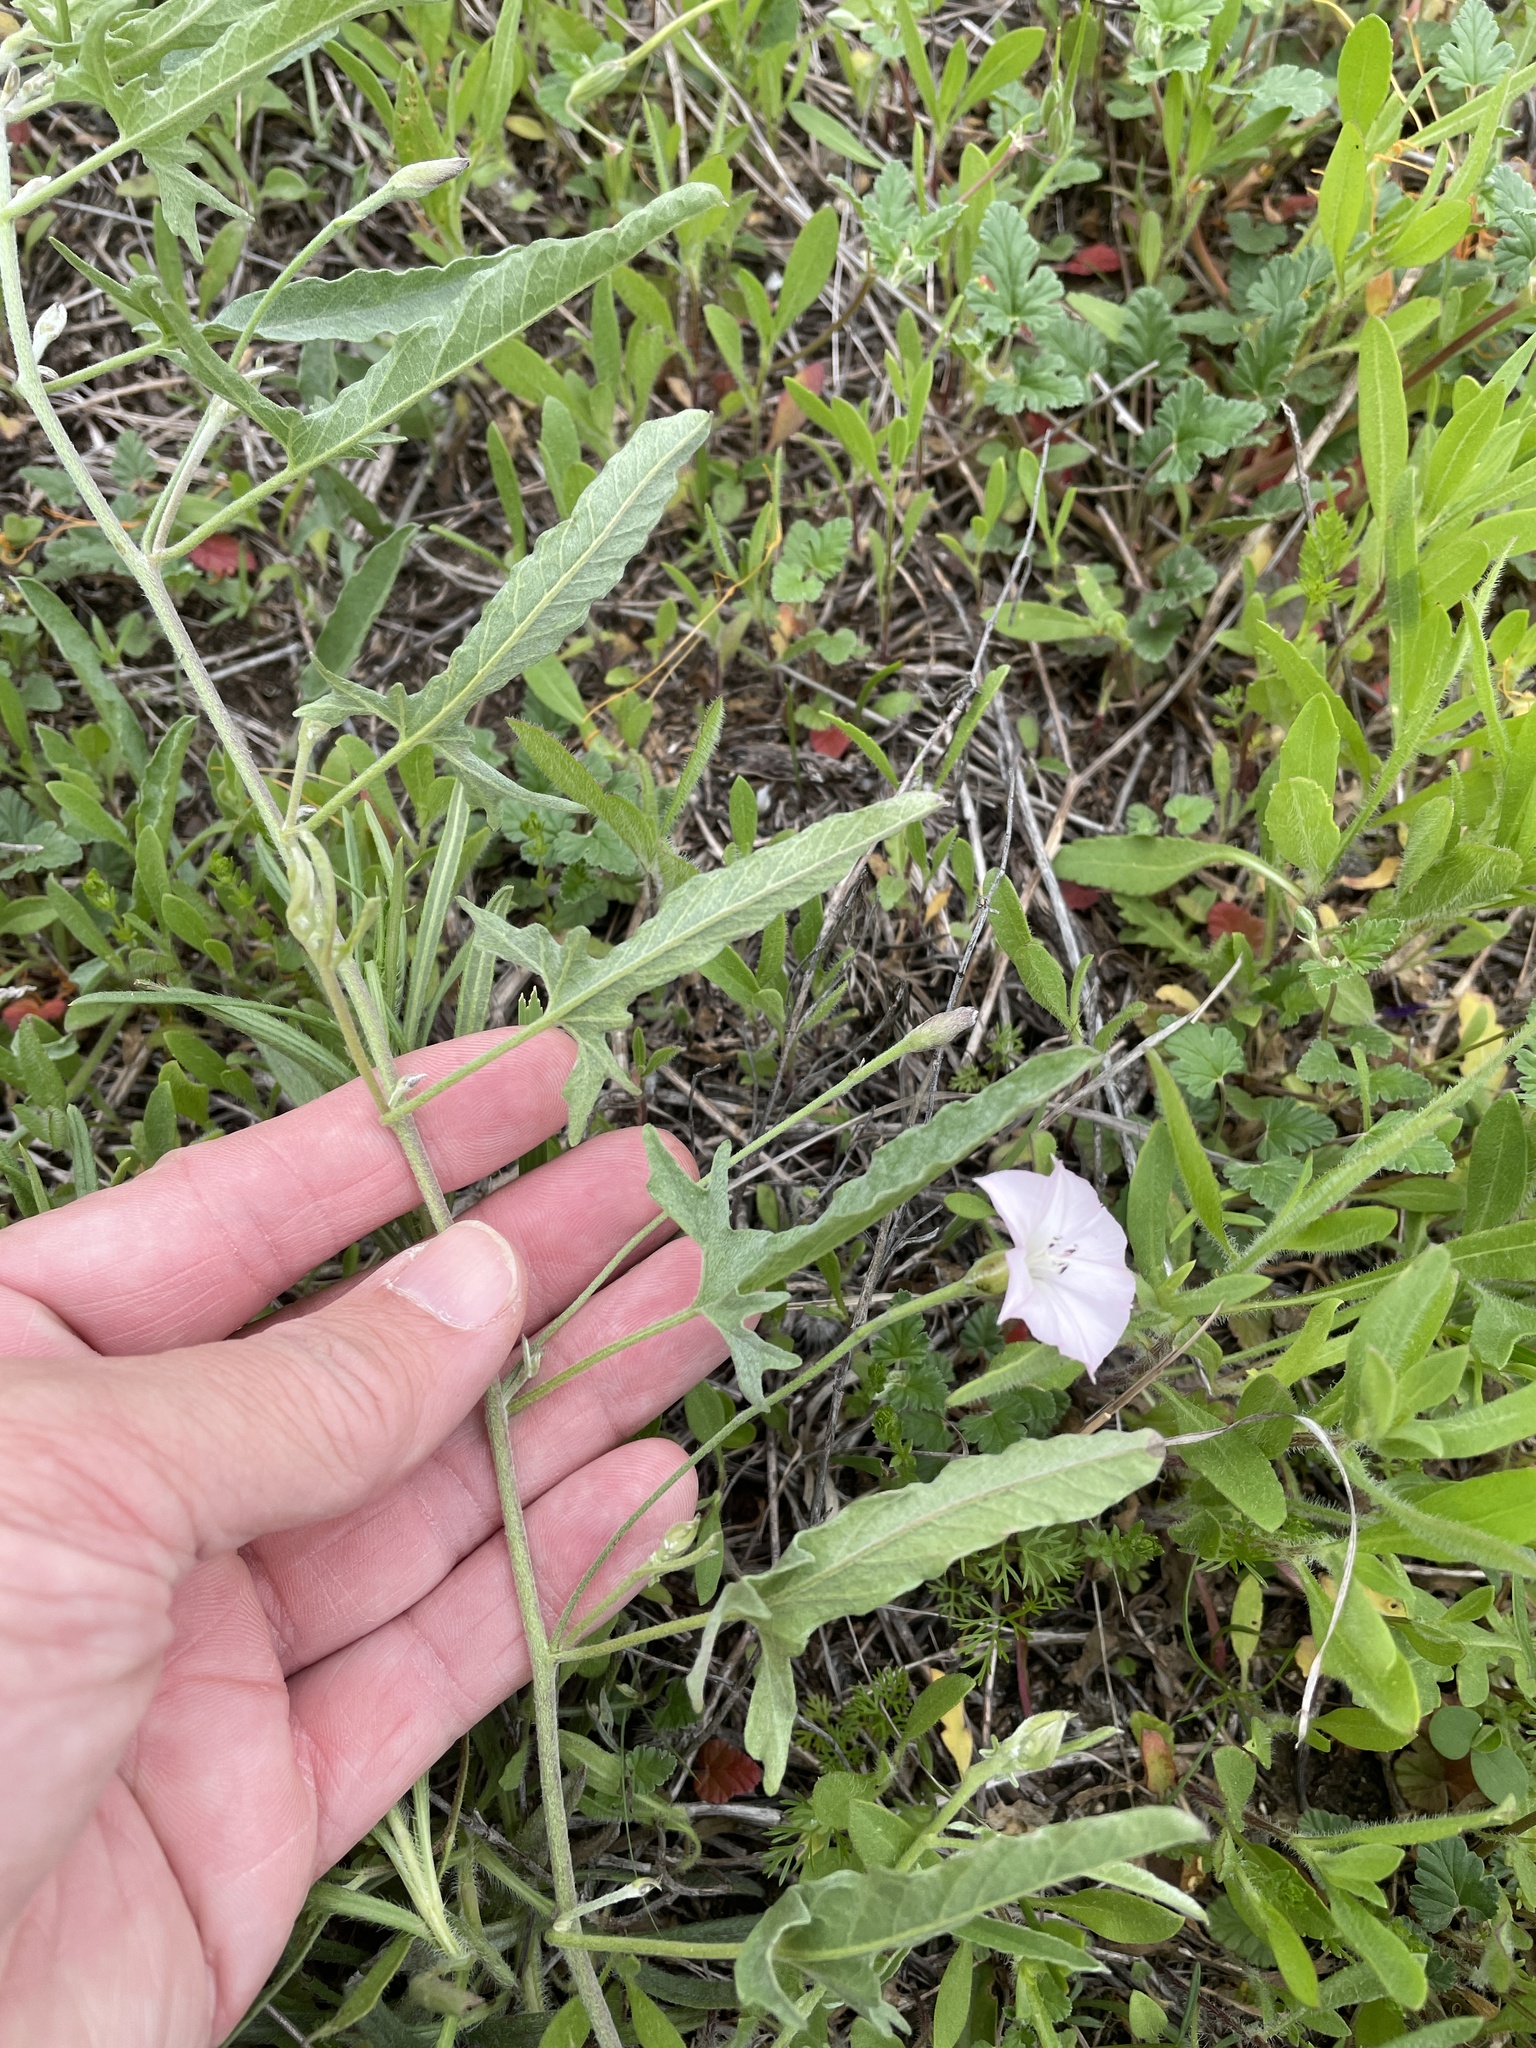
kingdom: Plantae
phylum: Tracheophyta
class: Magnoliopsida
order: Solanales
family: Convolvulaceae
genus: Convolvulus
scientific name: Convolvulus equitans
